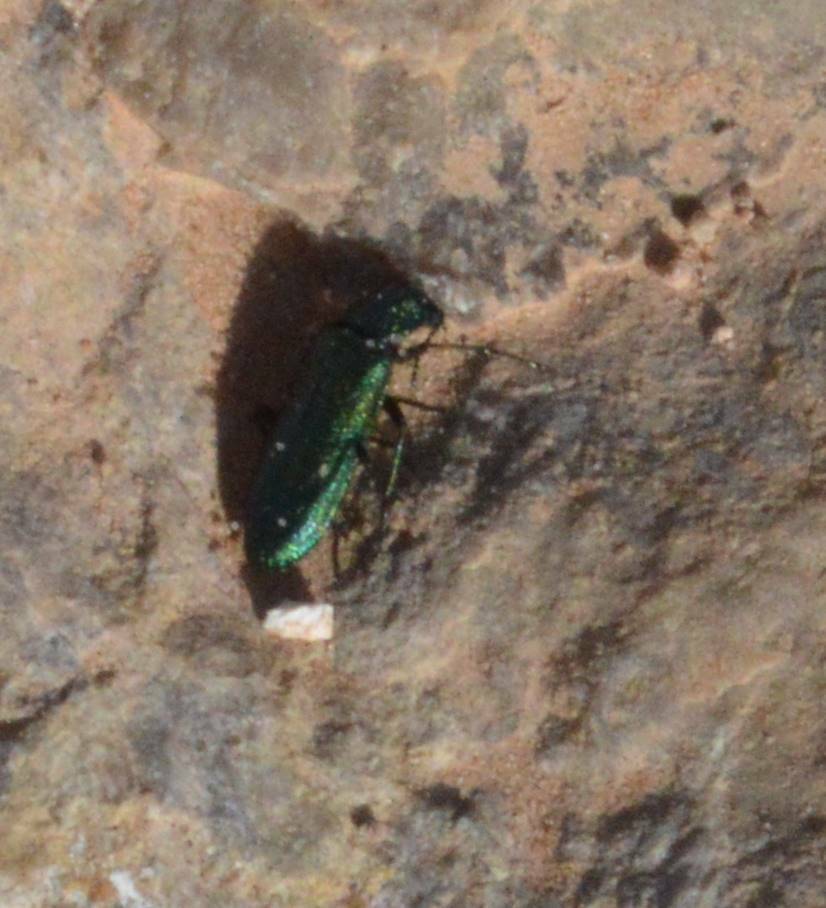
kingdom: Animalia
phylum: Arthropoda
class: Insecta
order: Coleoptera
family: Dasytidae
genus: Psilothrix
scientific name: Psilothrix viridicoerulea
